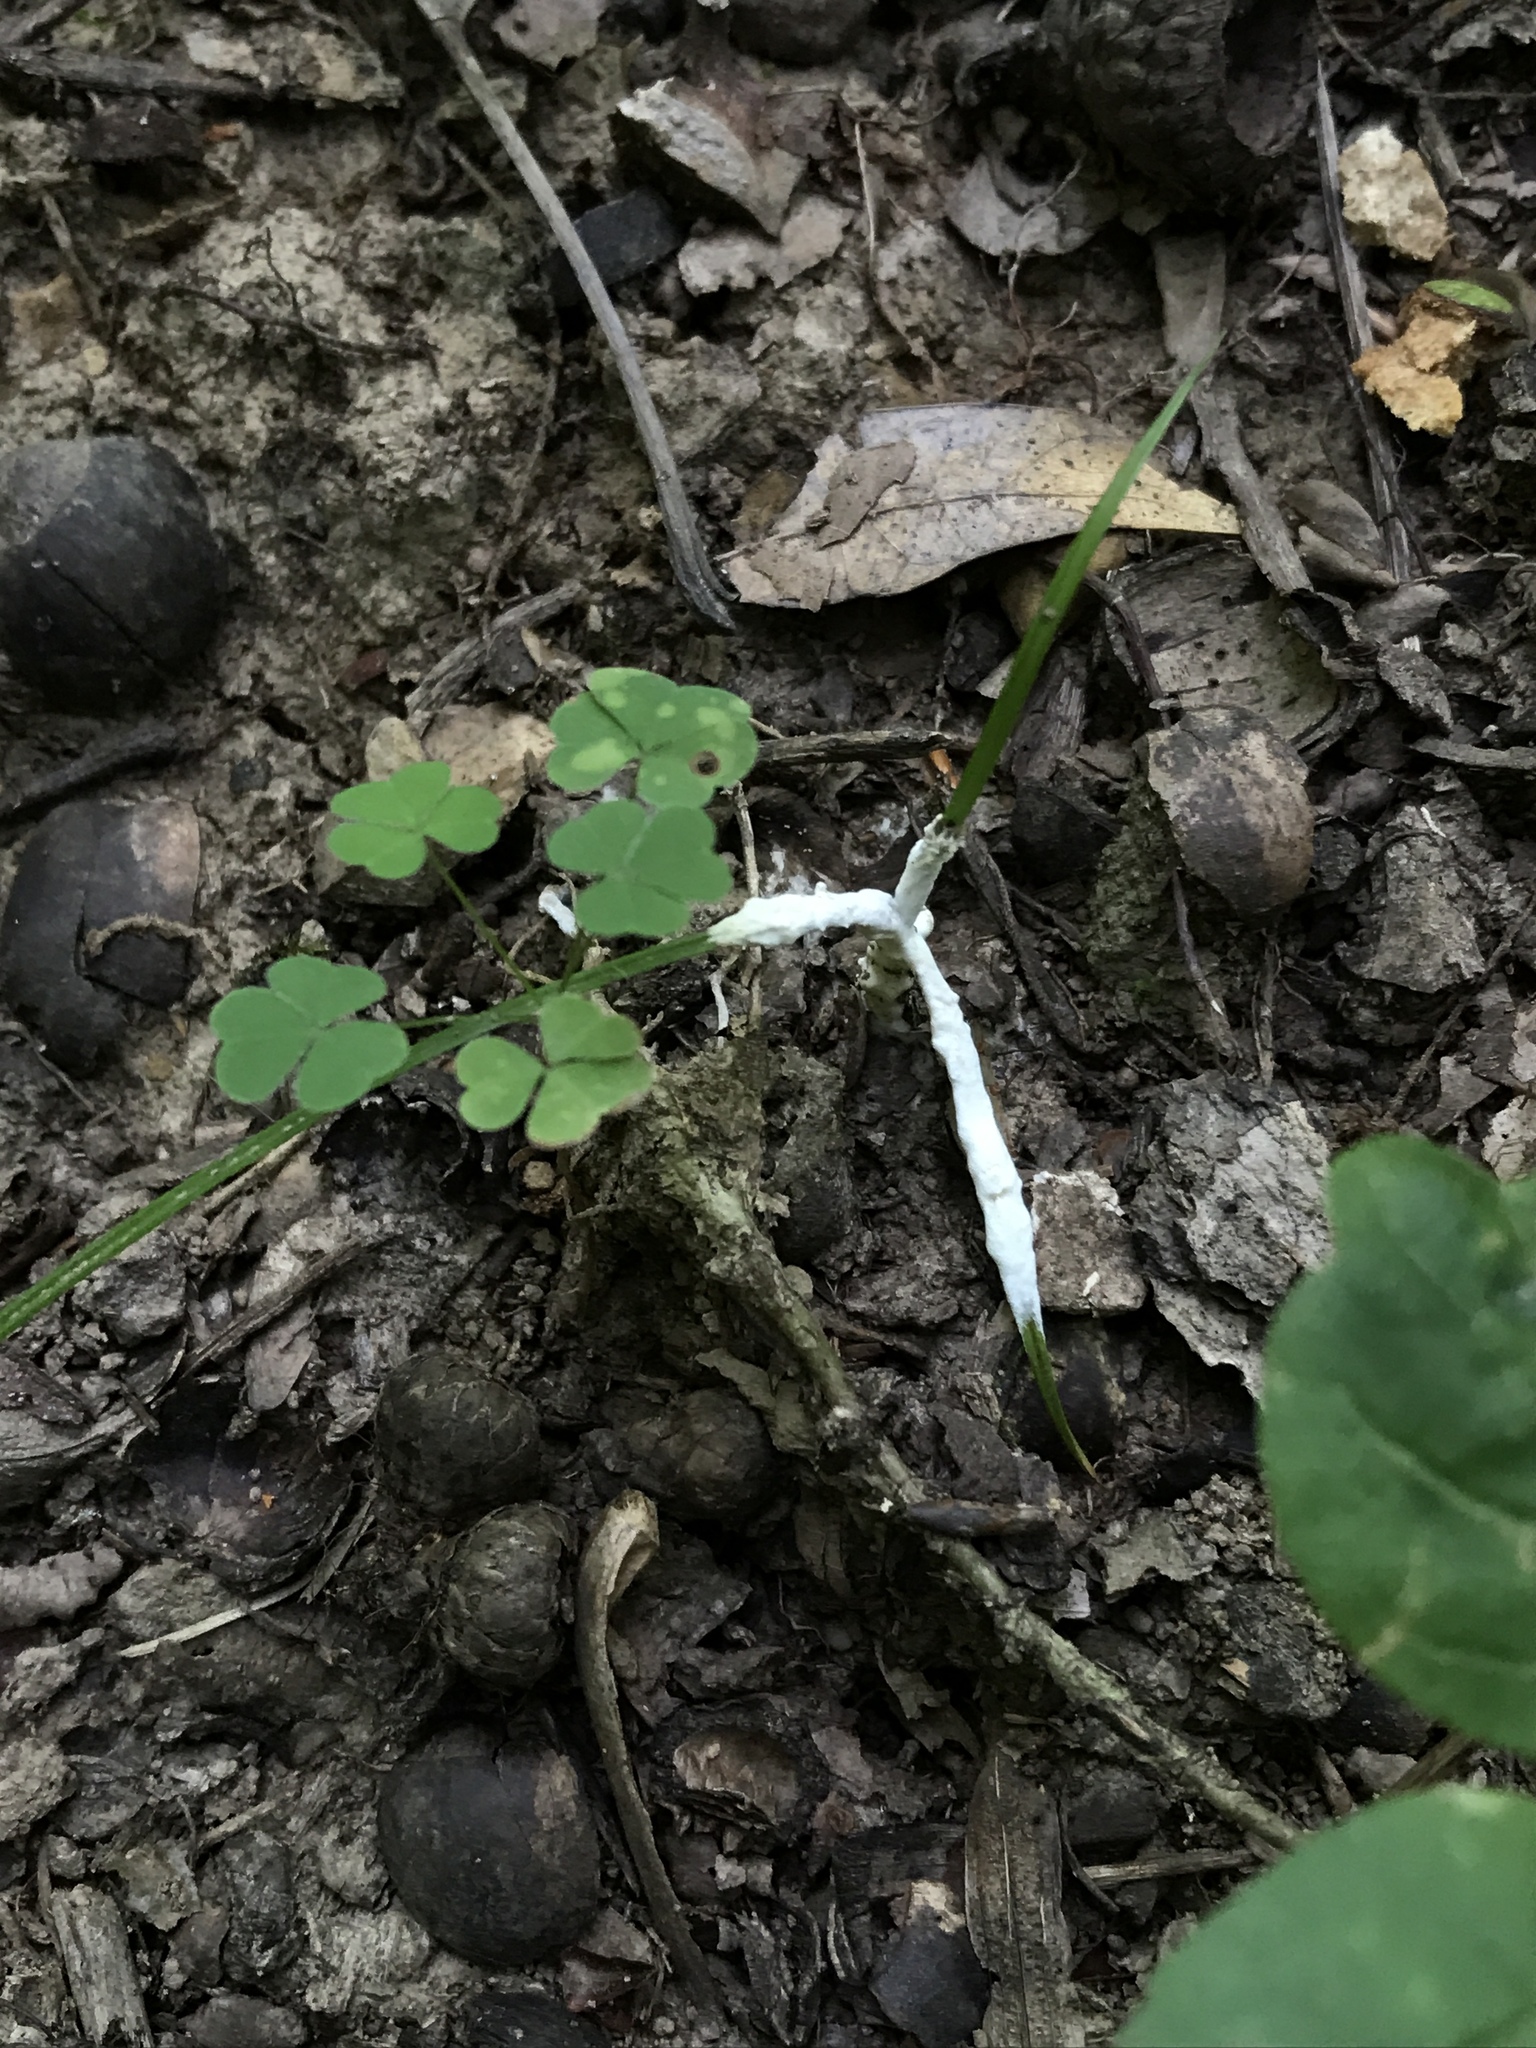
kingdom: Fungi
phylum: Basidiomycota
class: Agaricomycetes
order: Sebacinales
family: Sebacinaceae
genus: Sebacina
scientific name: Sebacina incrustans
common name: Enveloping crust
